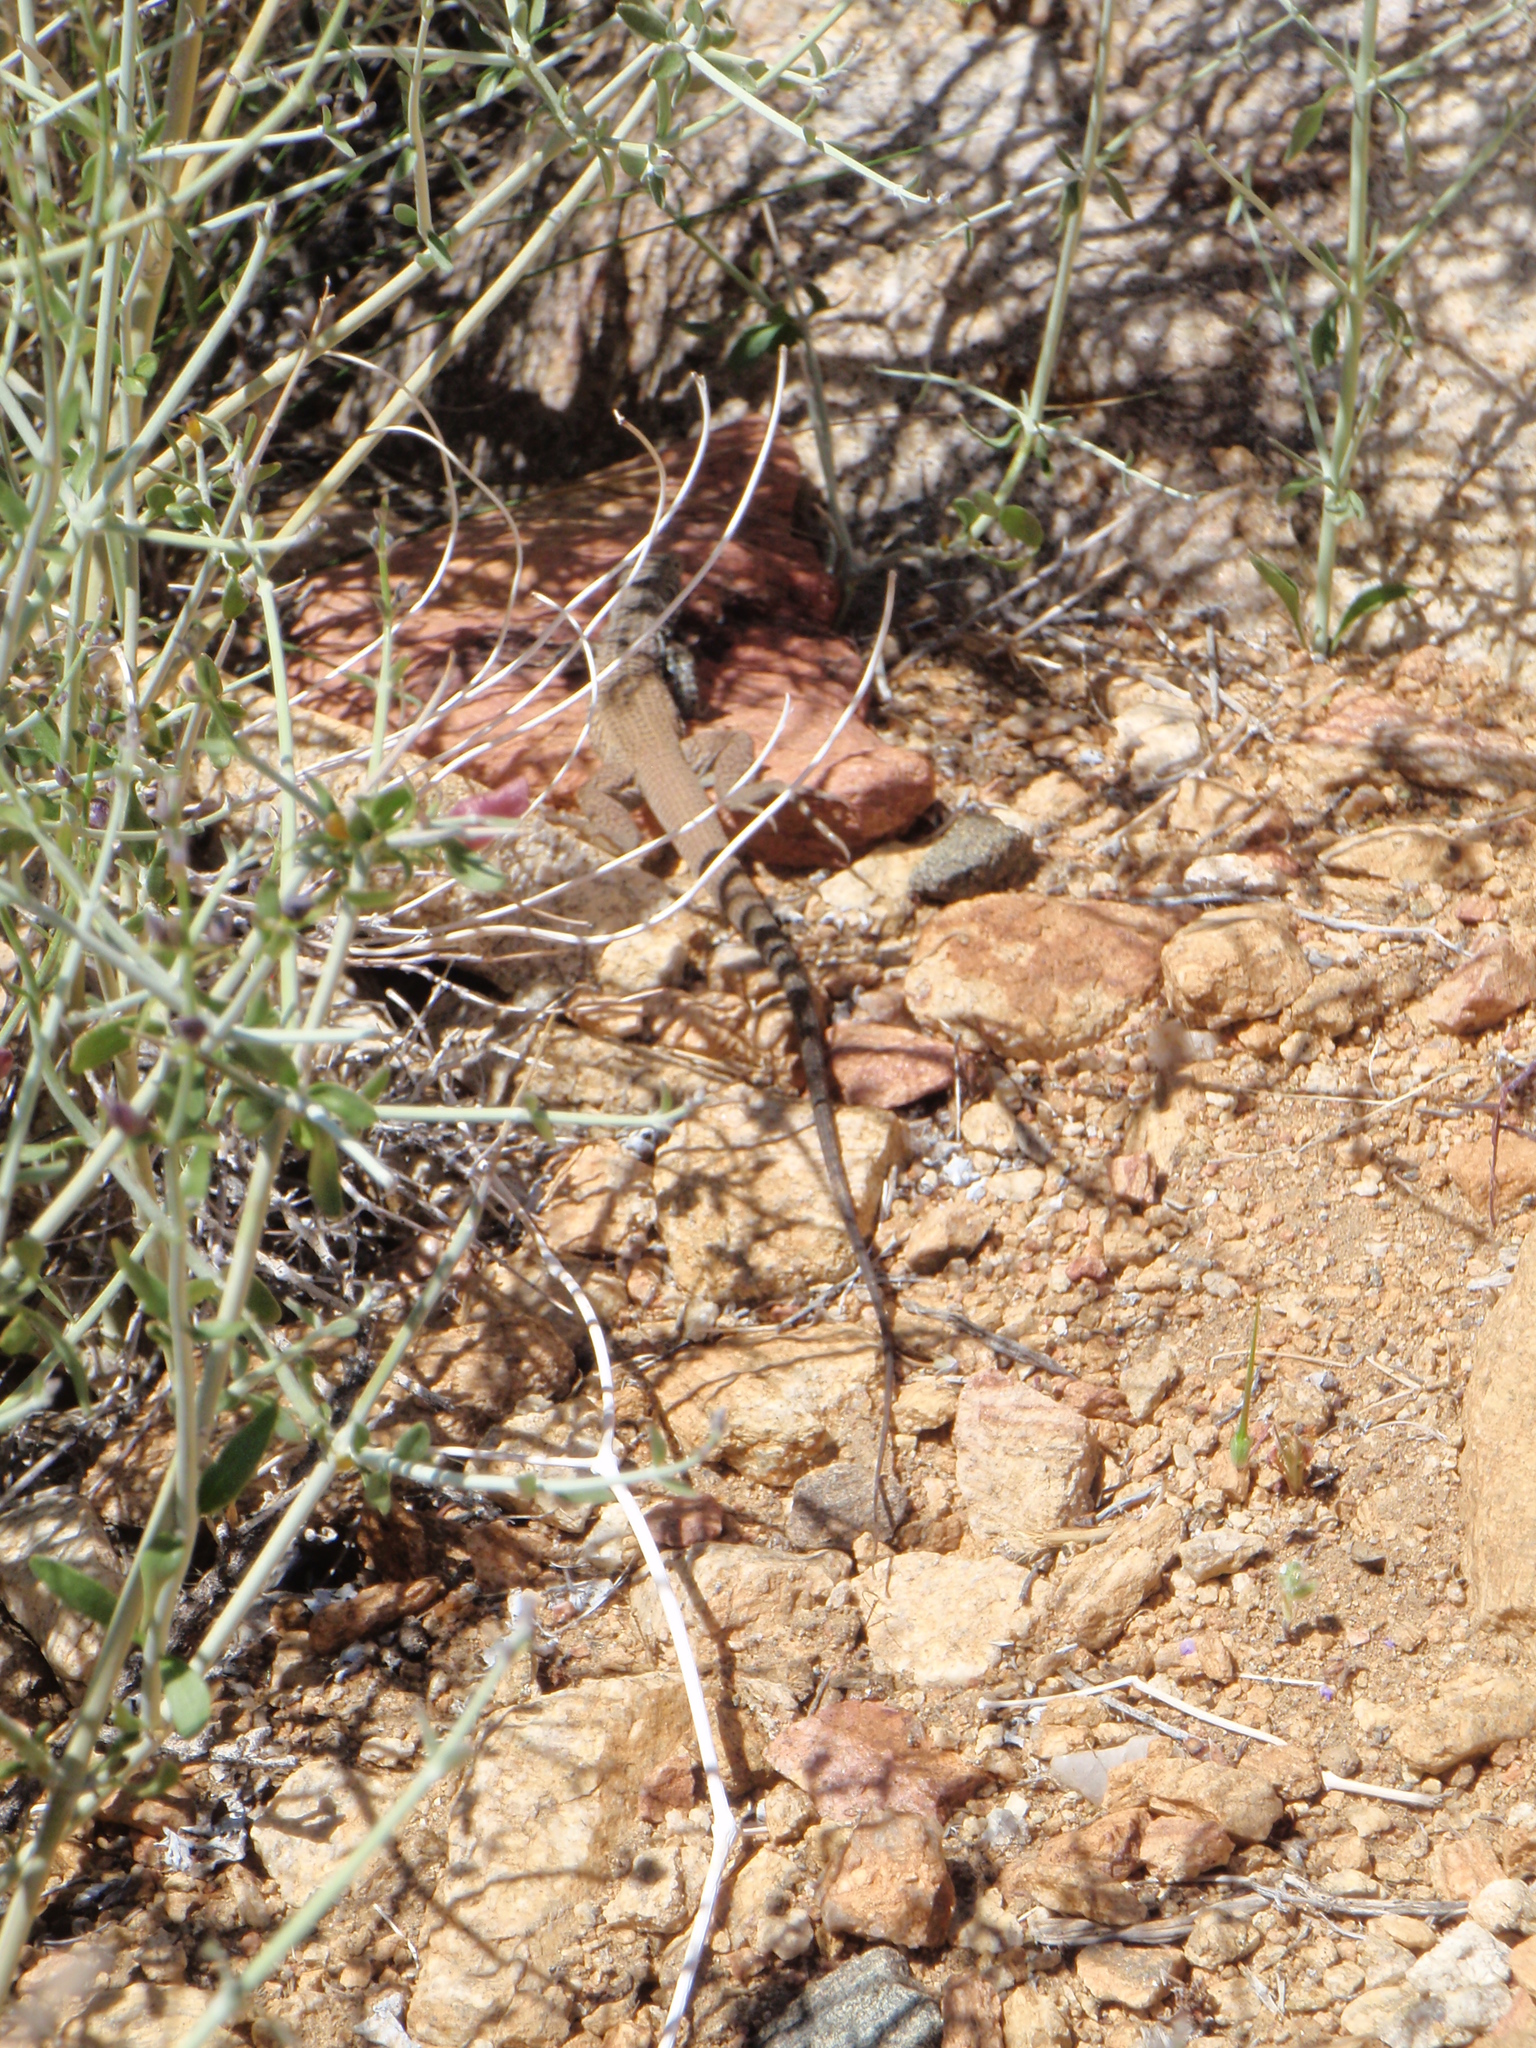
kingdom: Animalia
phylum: Chordata
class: Squamata
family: Teiidae
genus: Aspidoscelis
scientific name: Aspidoscelis tigris
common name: Tiger whiptail
